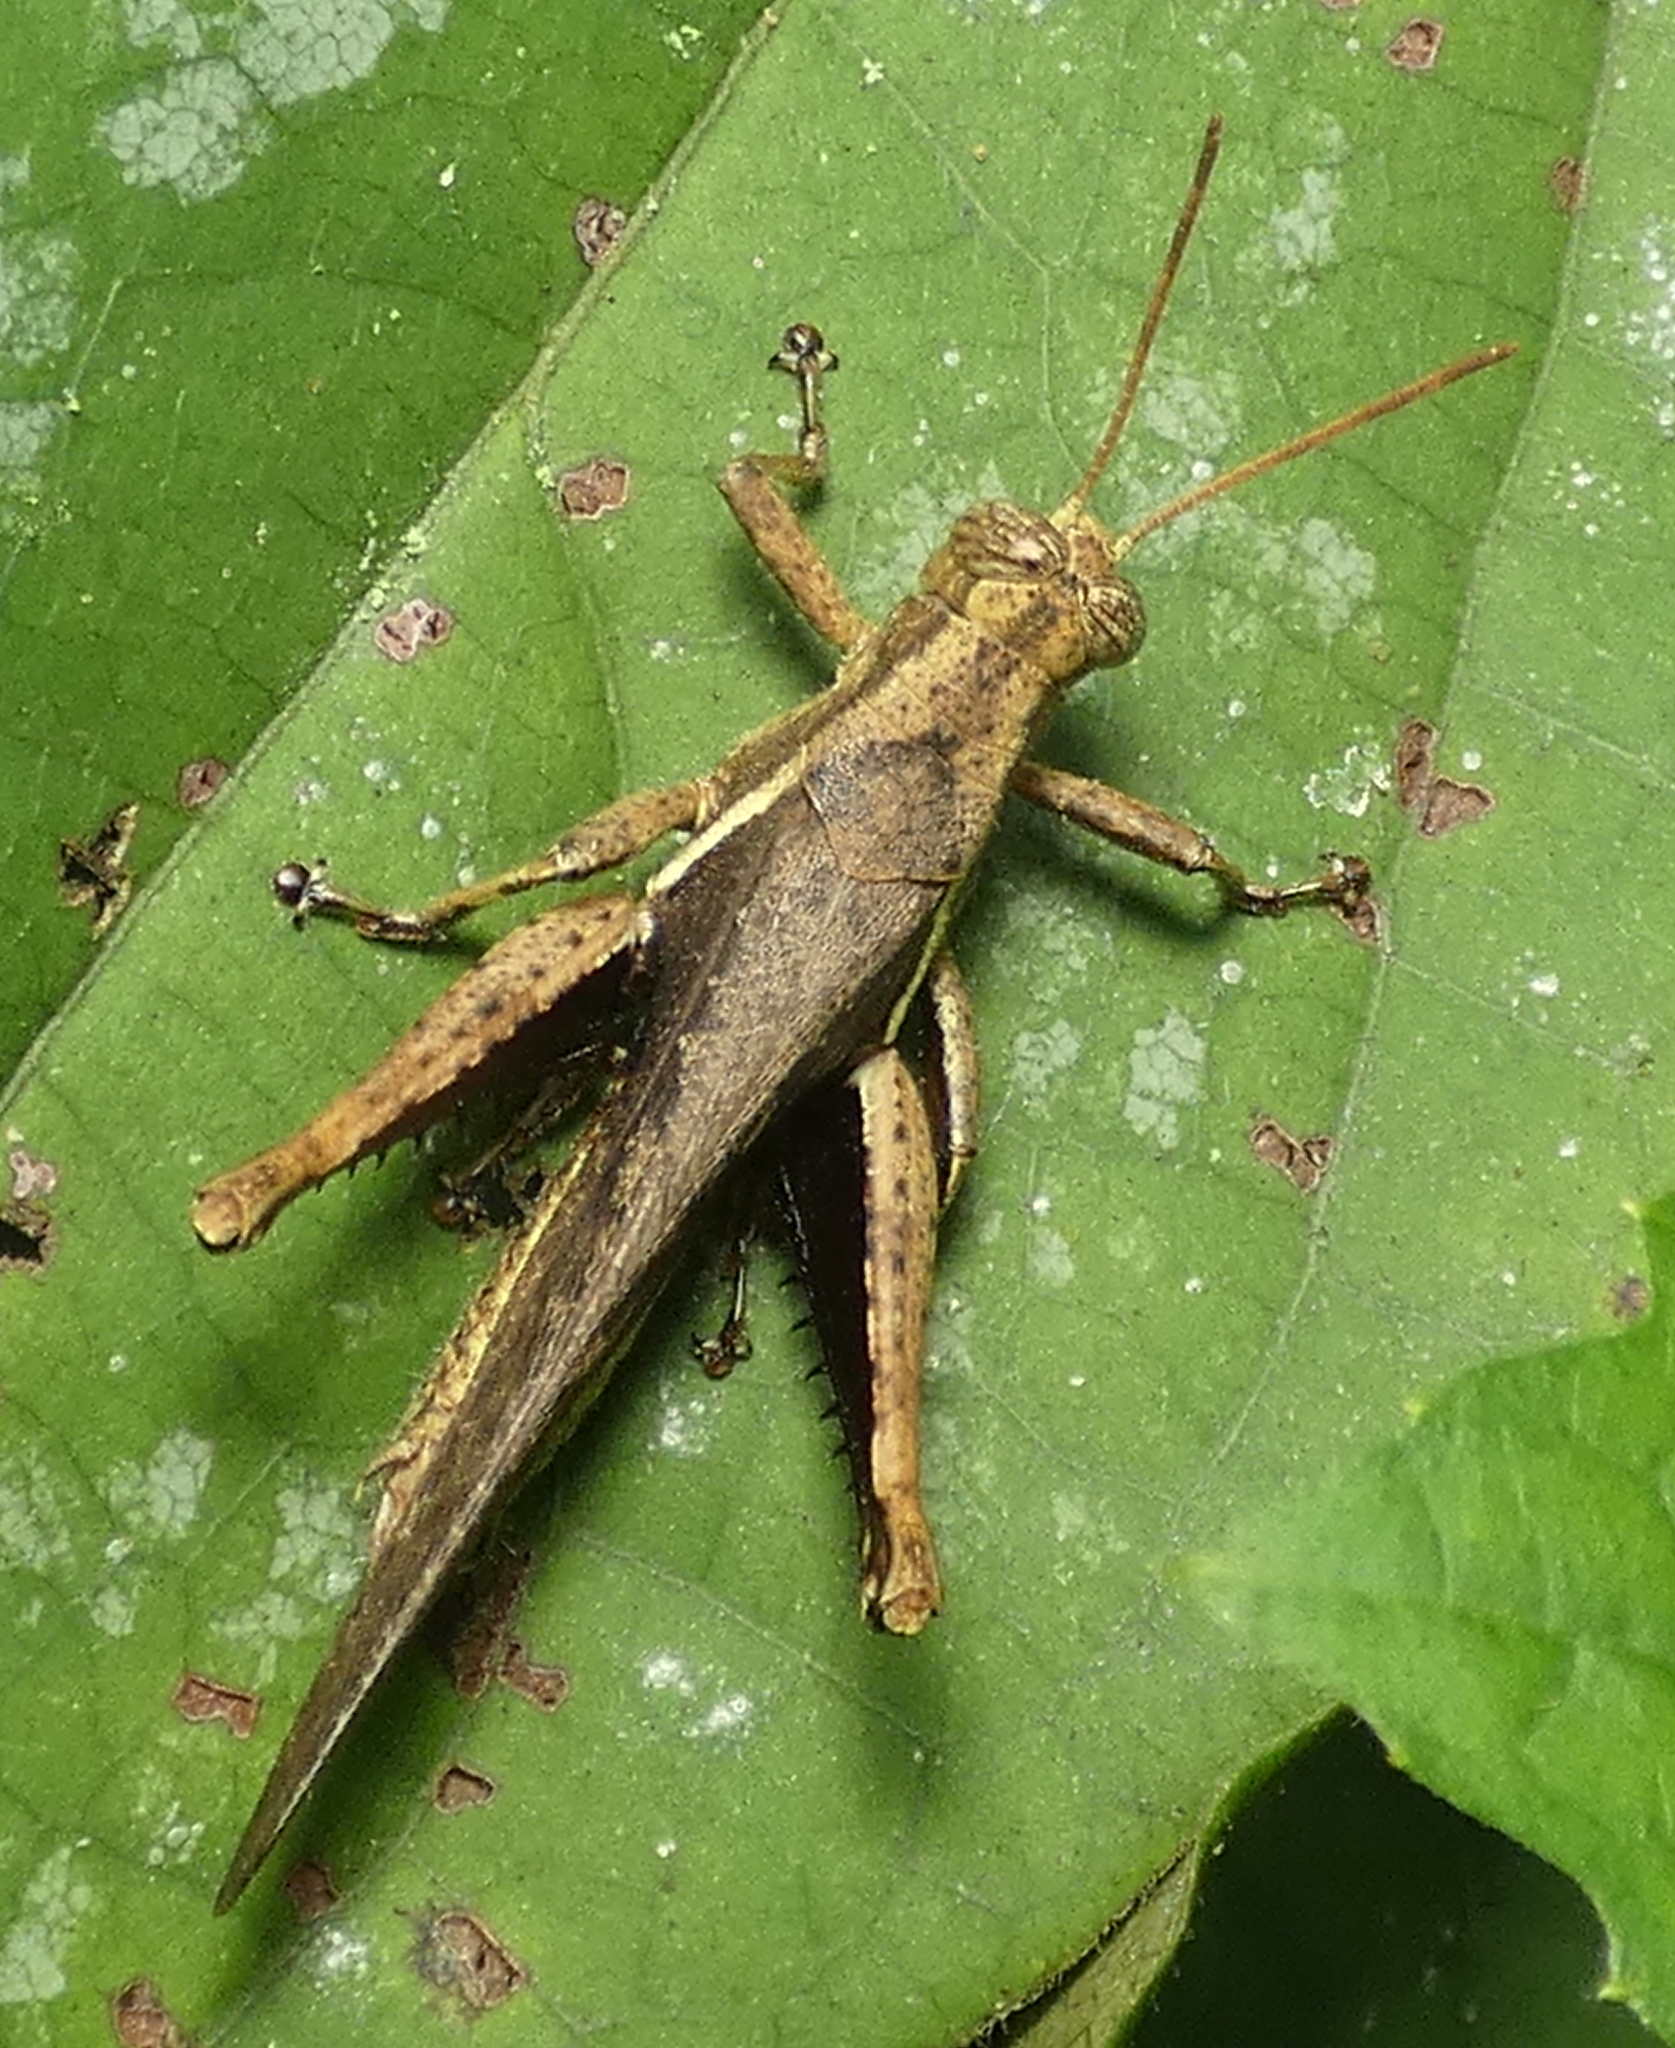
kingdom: Animalia
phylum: Arthropoda
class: Insecta
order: Orthoptera
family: Acrididae
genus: Abracris
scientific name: Abracris flavolineata
